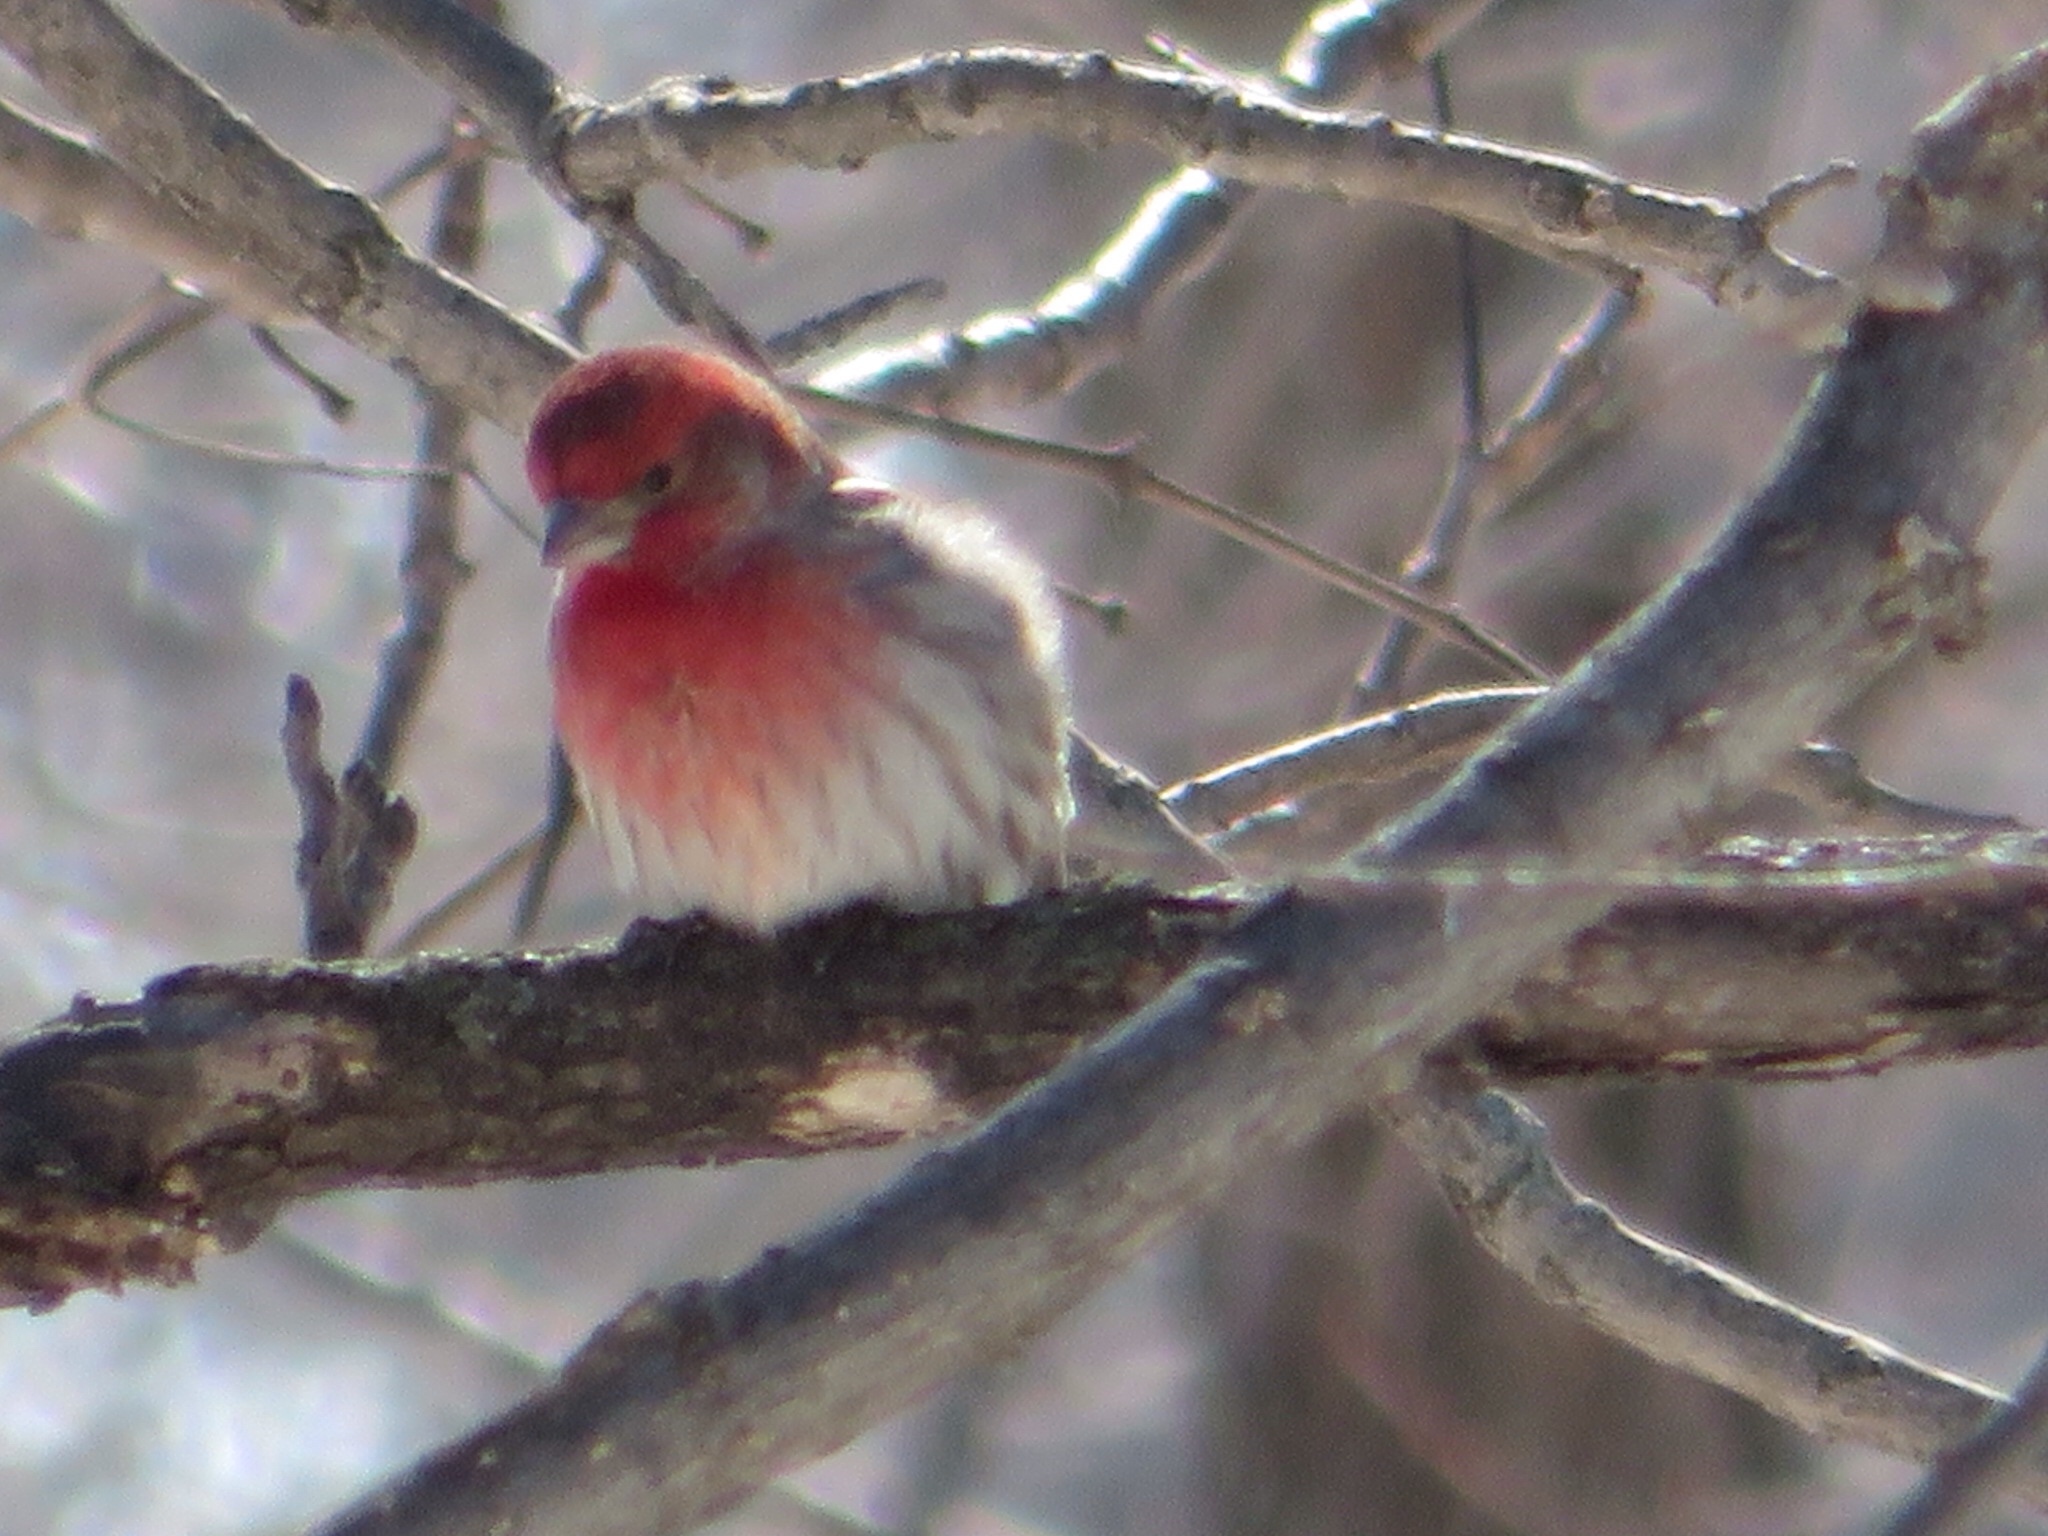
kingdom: Animalia
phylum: Chordata
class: Aves
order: Passeriformes
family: Fringillidae
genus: Haemorhous
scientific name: Haemorhous mexicanus
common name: House finch
